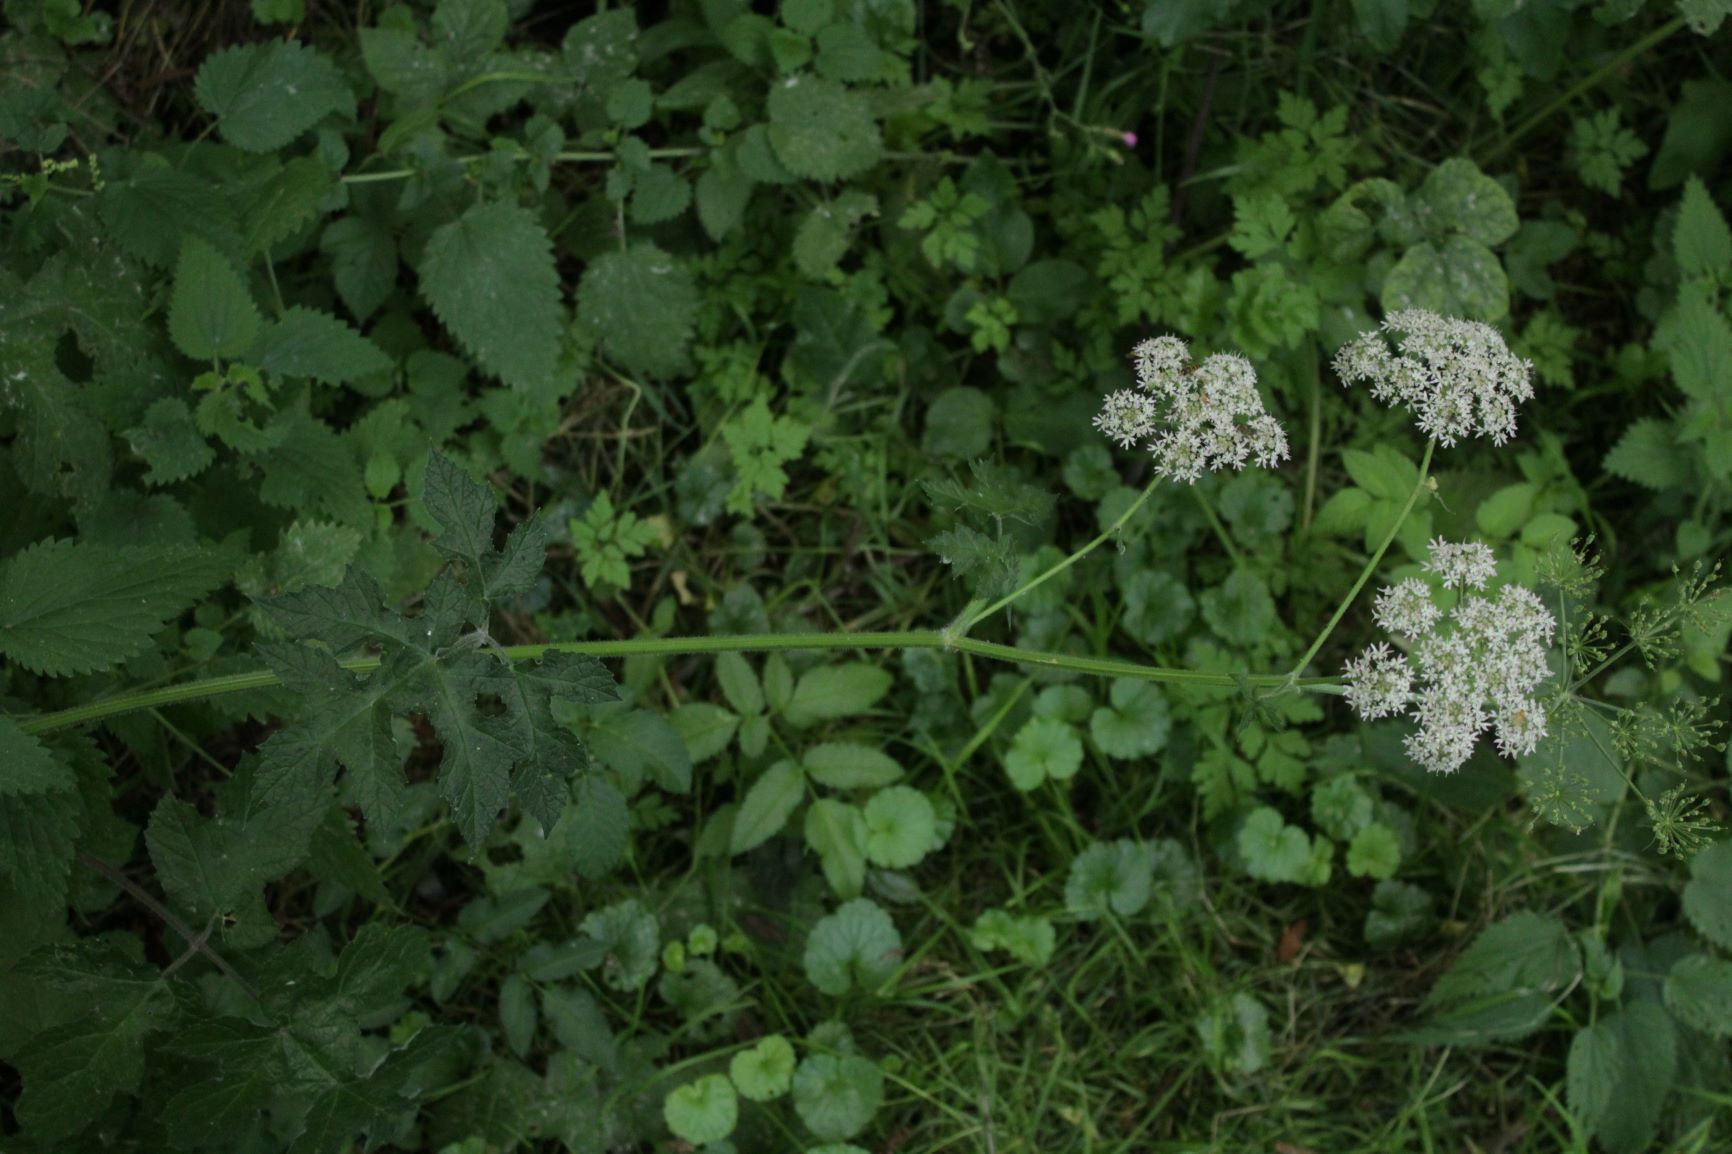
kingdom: Plantae
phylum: Tracheophyta
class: Magnoliopsida
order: Apiales
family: Apiaceae
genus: Heracleum
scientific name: Heracleum sphondylium
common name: Hogweed
